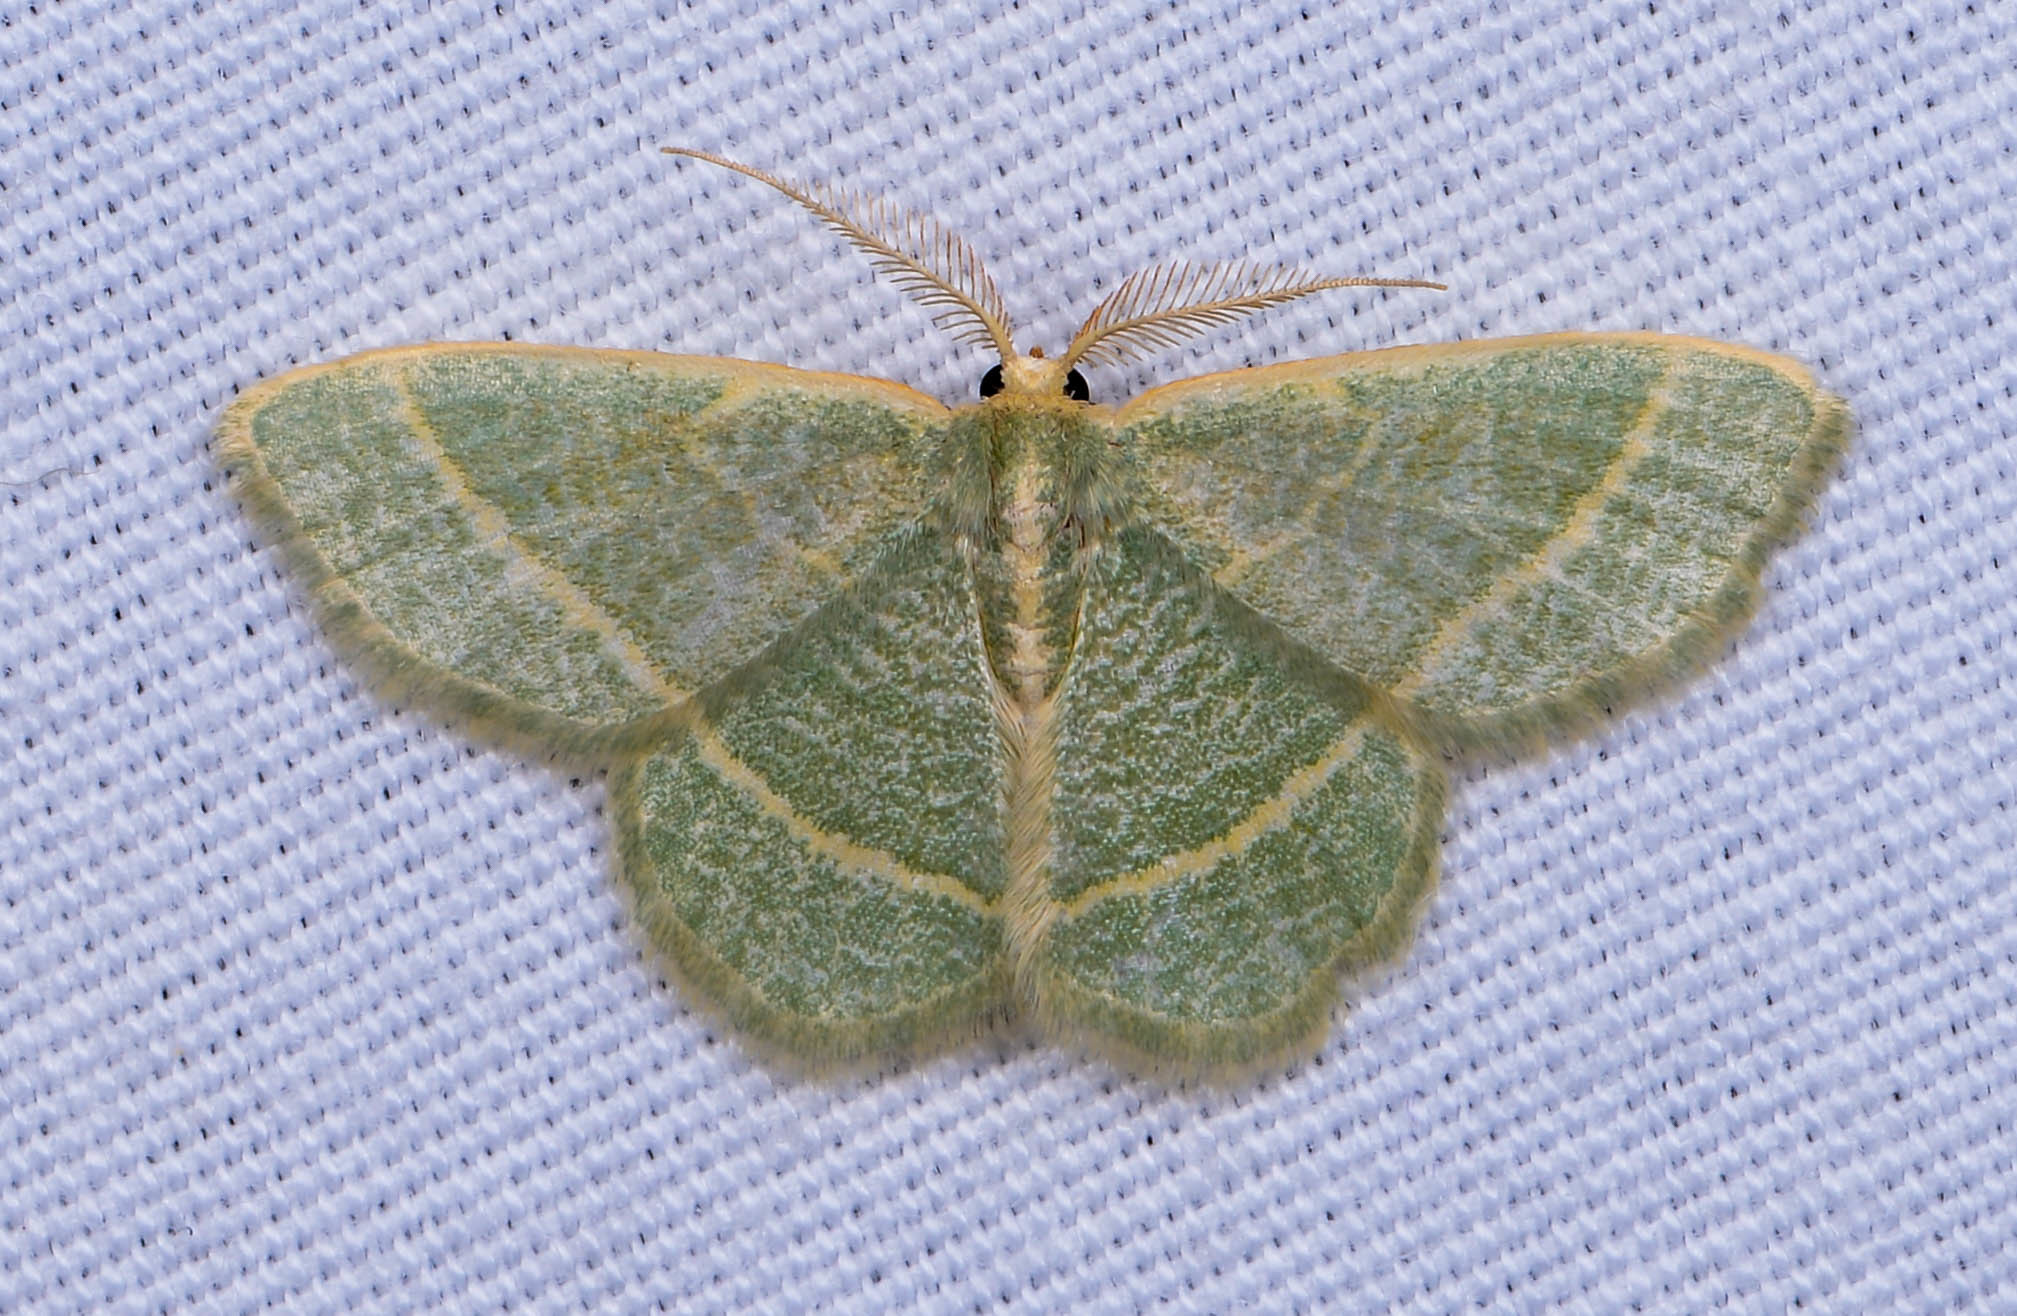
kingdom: Animalia
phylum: Arthropoda
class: Insecta
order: Lepidoptera
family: Geometridae
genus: Chlorochlamys
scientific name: Chlorochlamys chloroleucaria
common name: Blackberry looper
